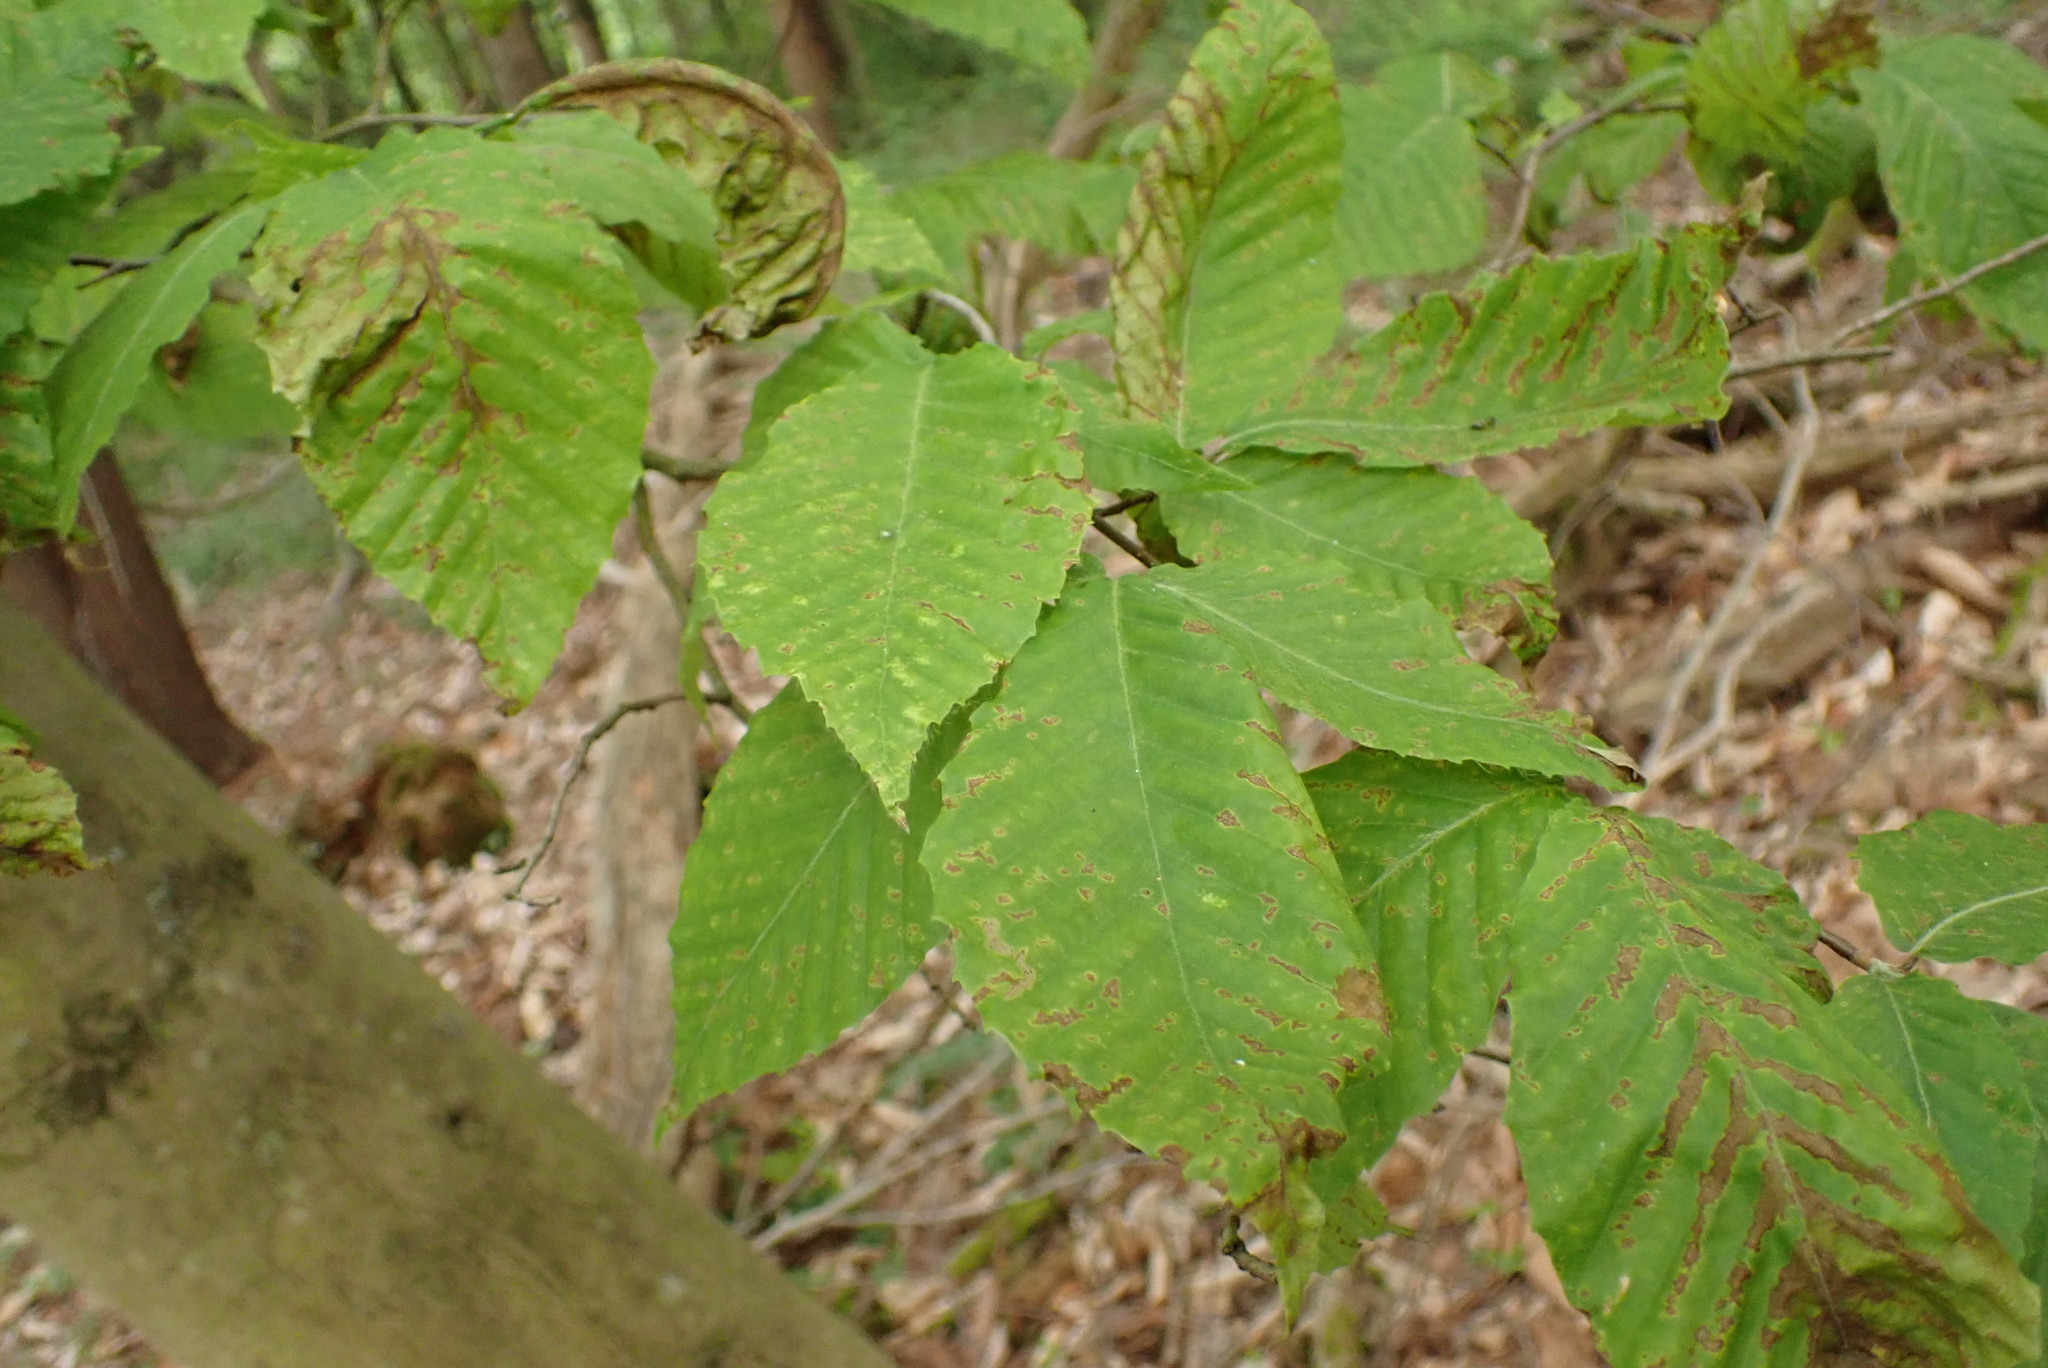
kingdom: Plantae
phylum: Tracheophyta
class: Magnoliopsida
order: Fagales
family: Fagaceae
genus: Fagus
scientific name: Fagus grandifolia
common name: American beech
